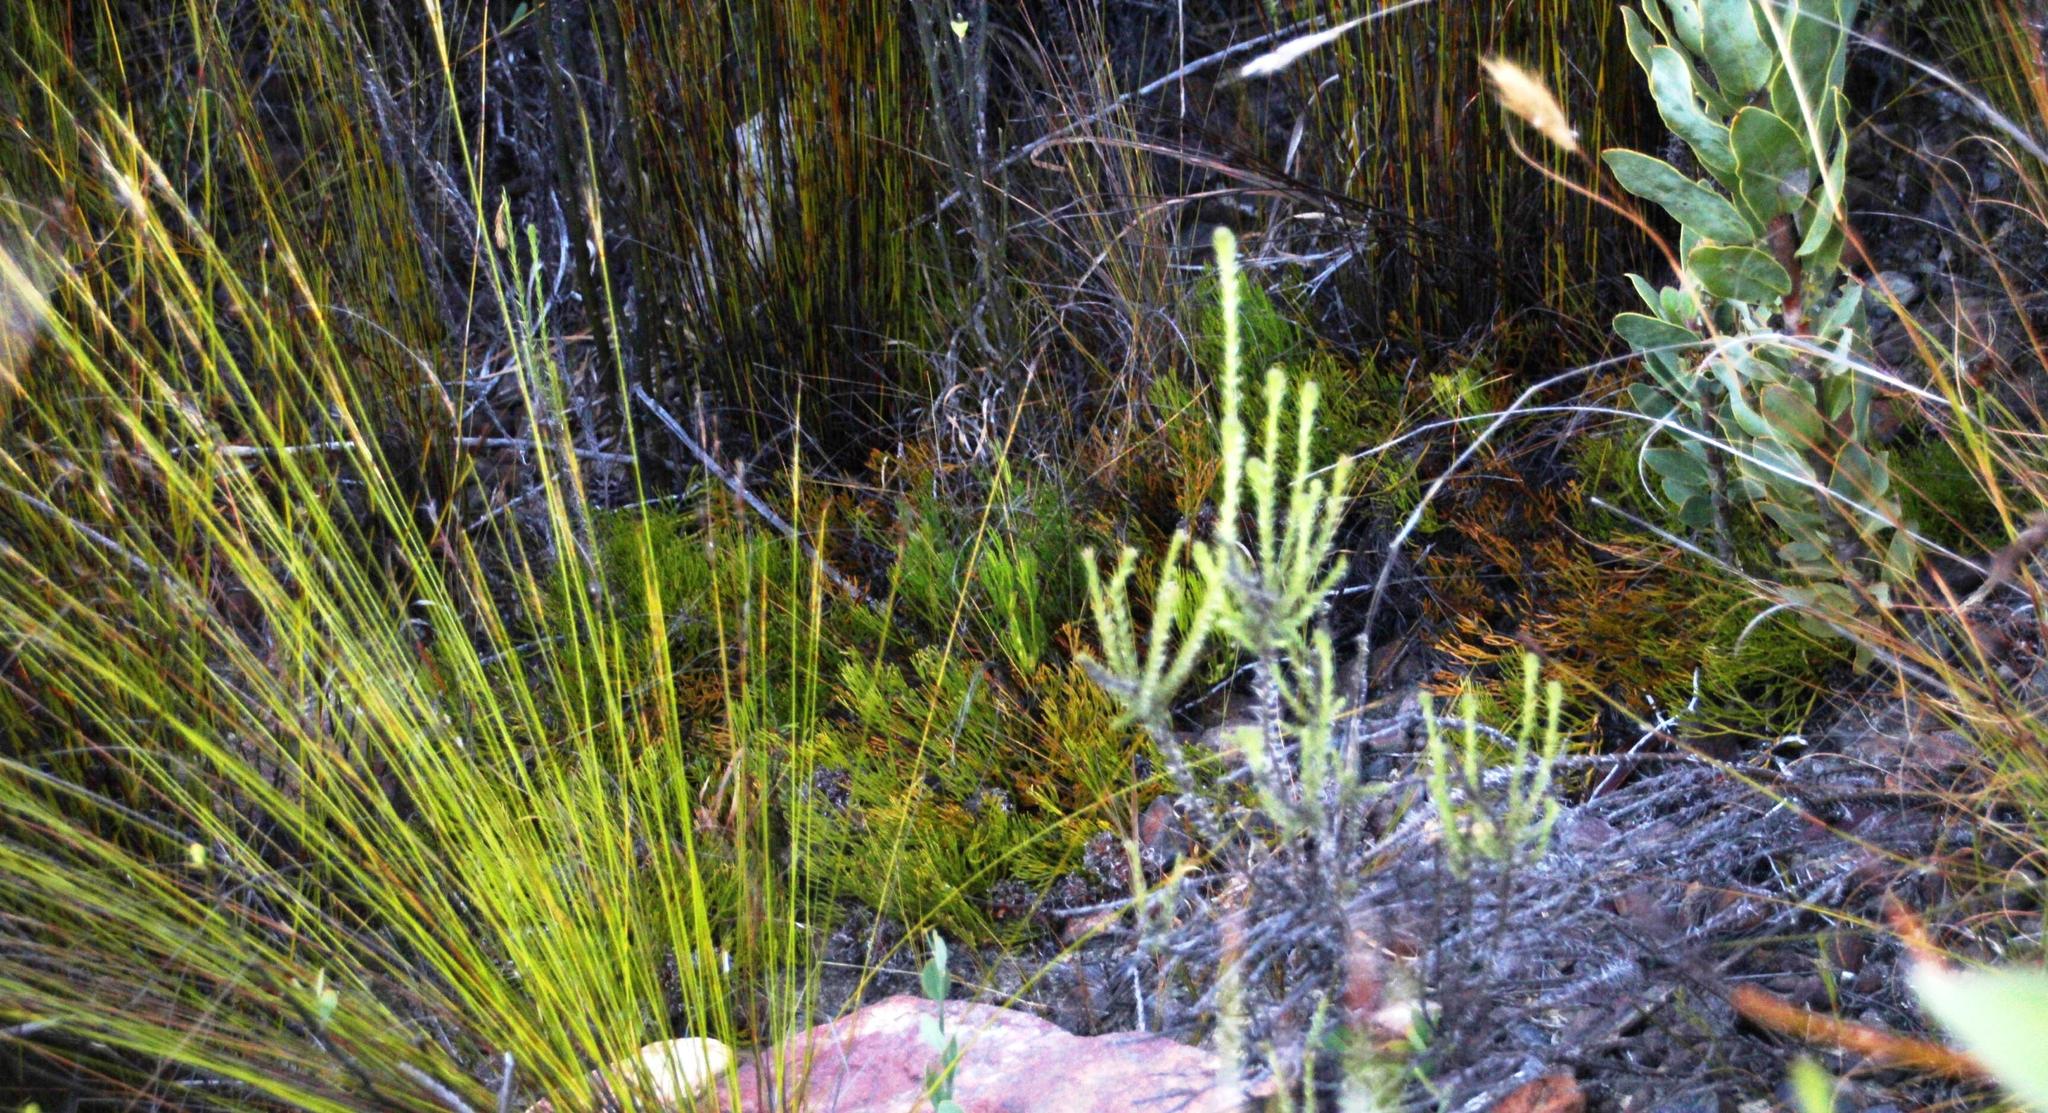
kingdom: Plantae
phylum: Tracheophyta
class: Magnoliopsida
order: Proteales
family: Proteaceae
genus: Serruria
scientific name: Serruria cygnea
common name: Swan spiderhead
